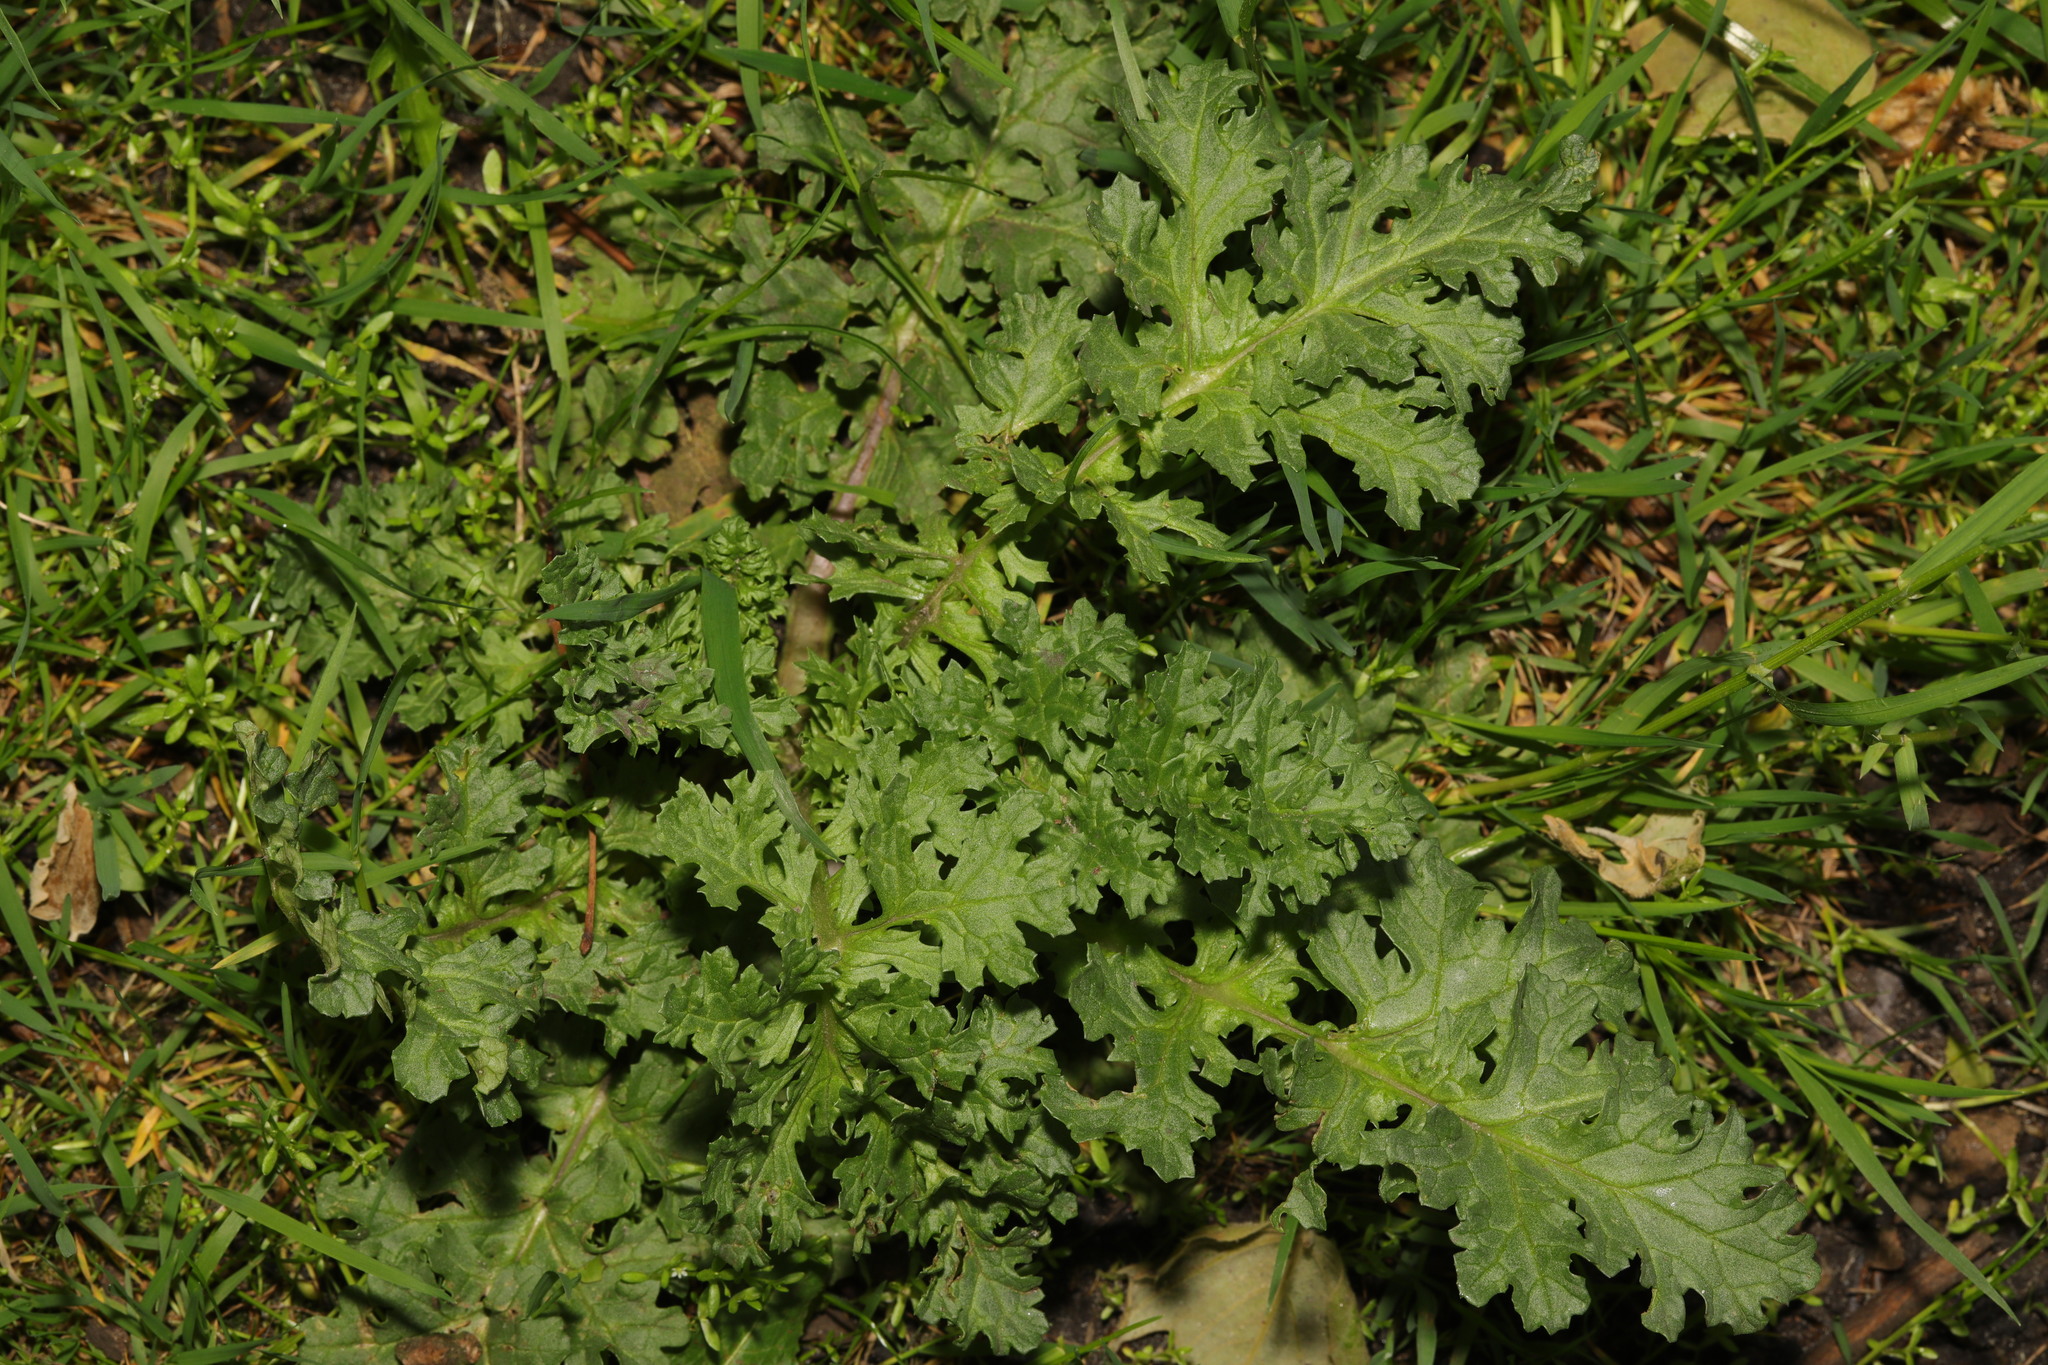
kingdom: Plantae
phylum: Tracheophyta
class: Magnoliopsida
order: Asterales
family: Asteraceae
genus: Jacobaea
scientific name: Jacobaea vulgaris
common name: Stinking willie
